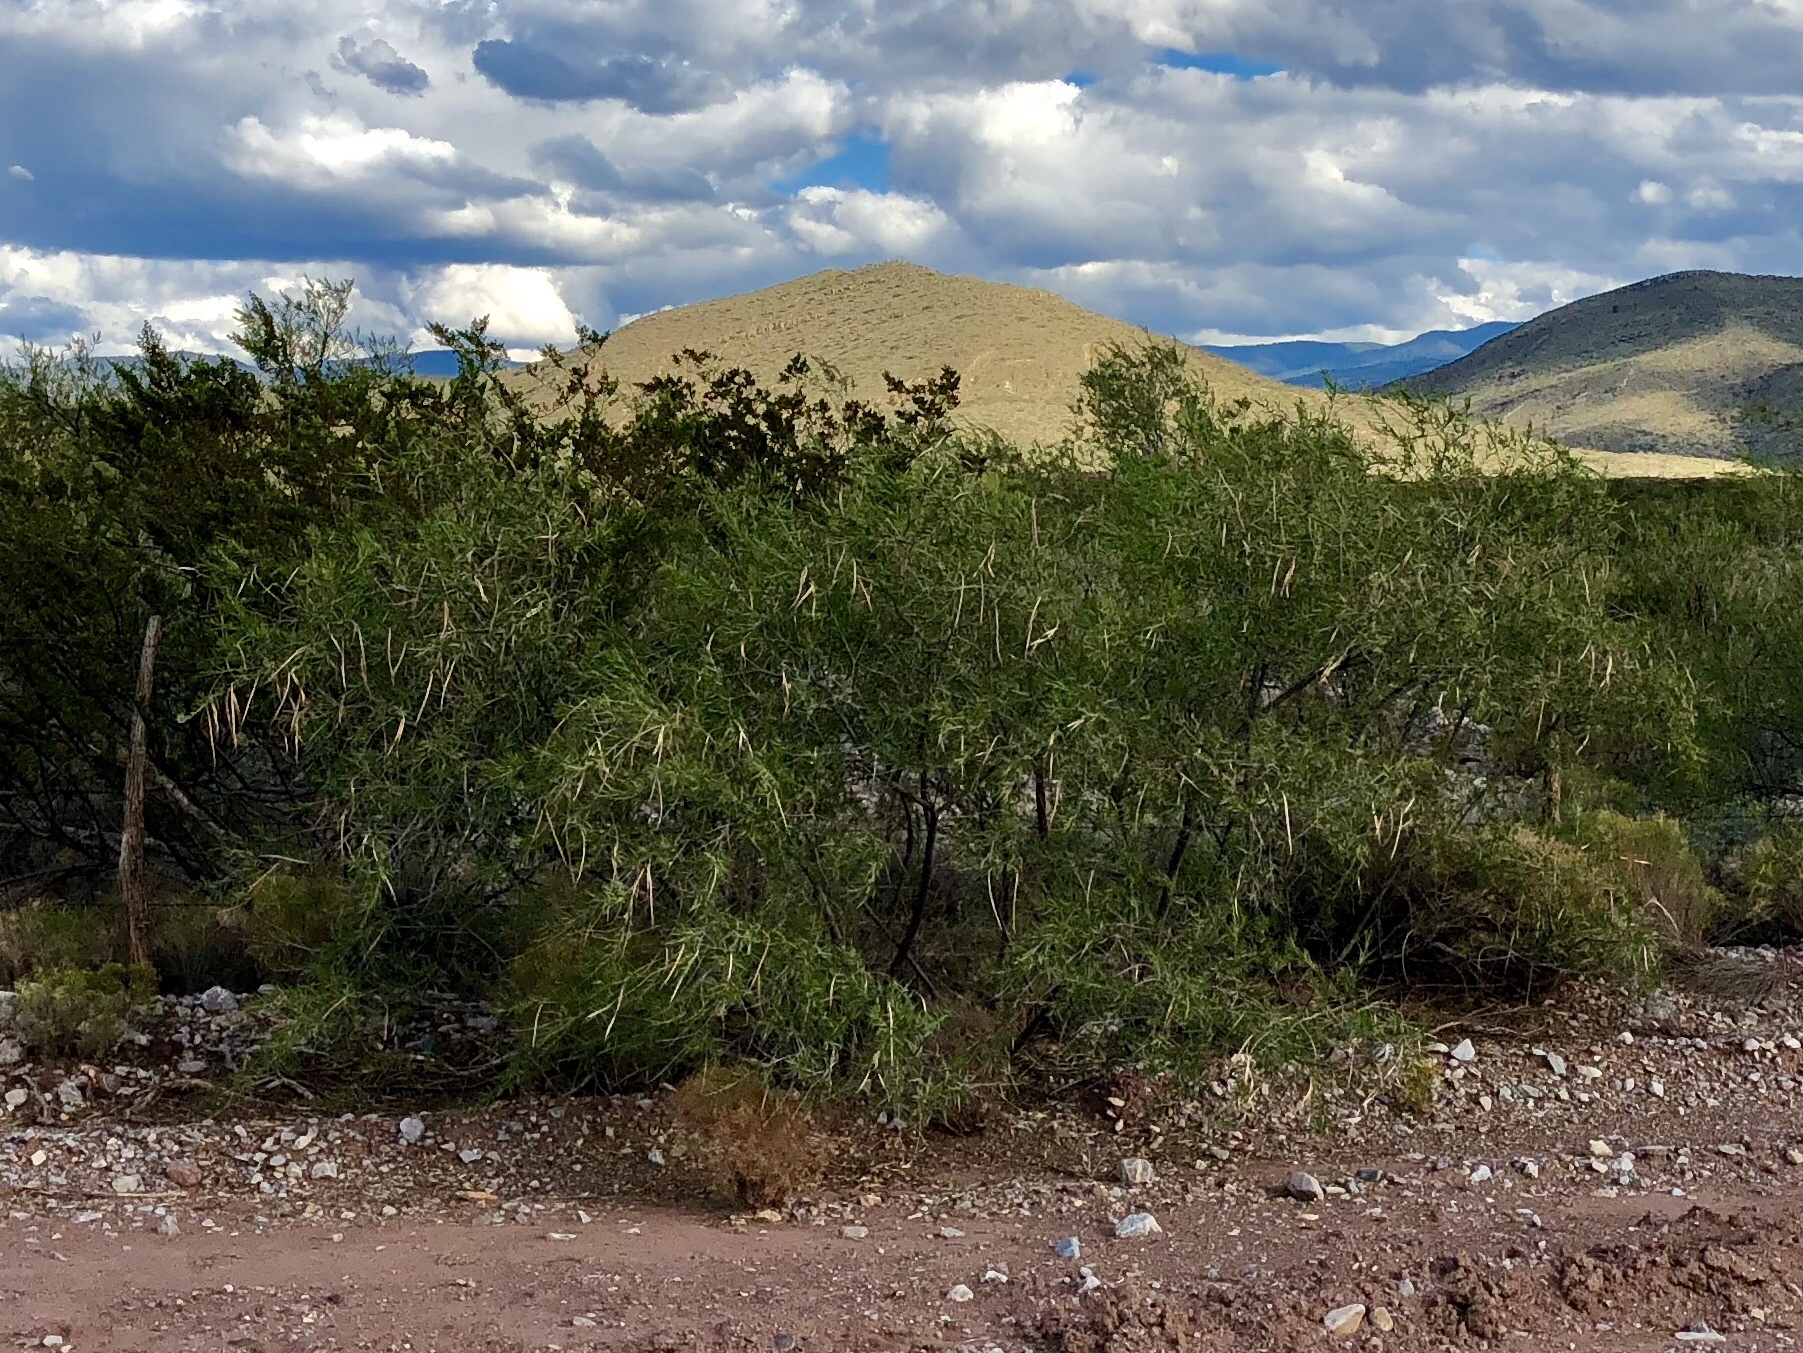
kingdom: Plantae
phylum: Tracheophyta
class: Magnoliopsida
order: Lamiales
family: Bignoniaceae
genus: Chilopsis
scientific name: Chilopsis linearis
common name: Desert-willow
